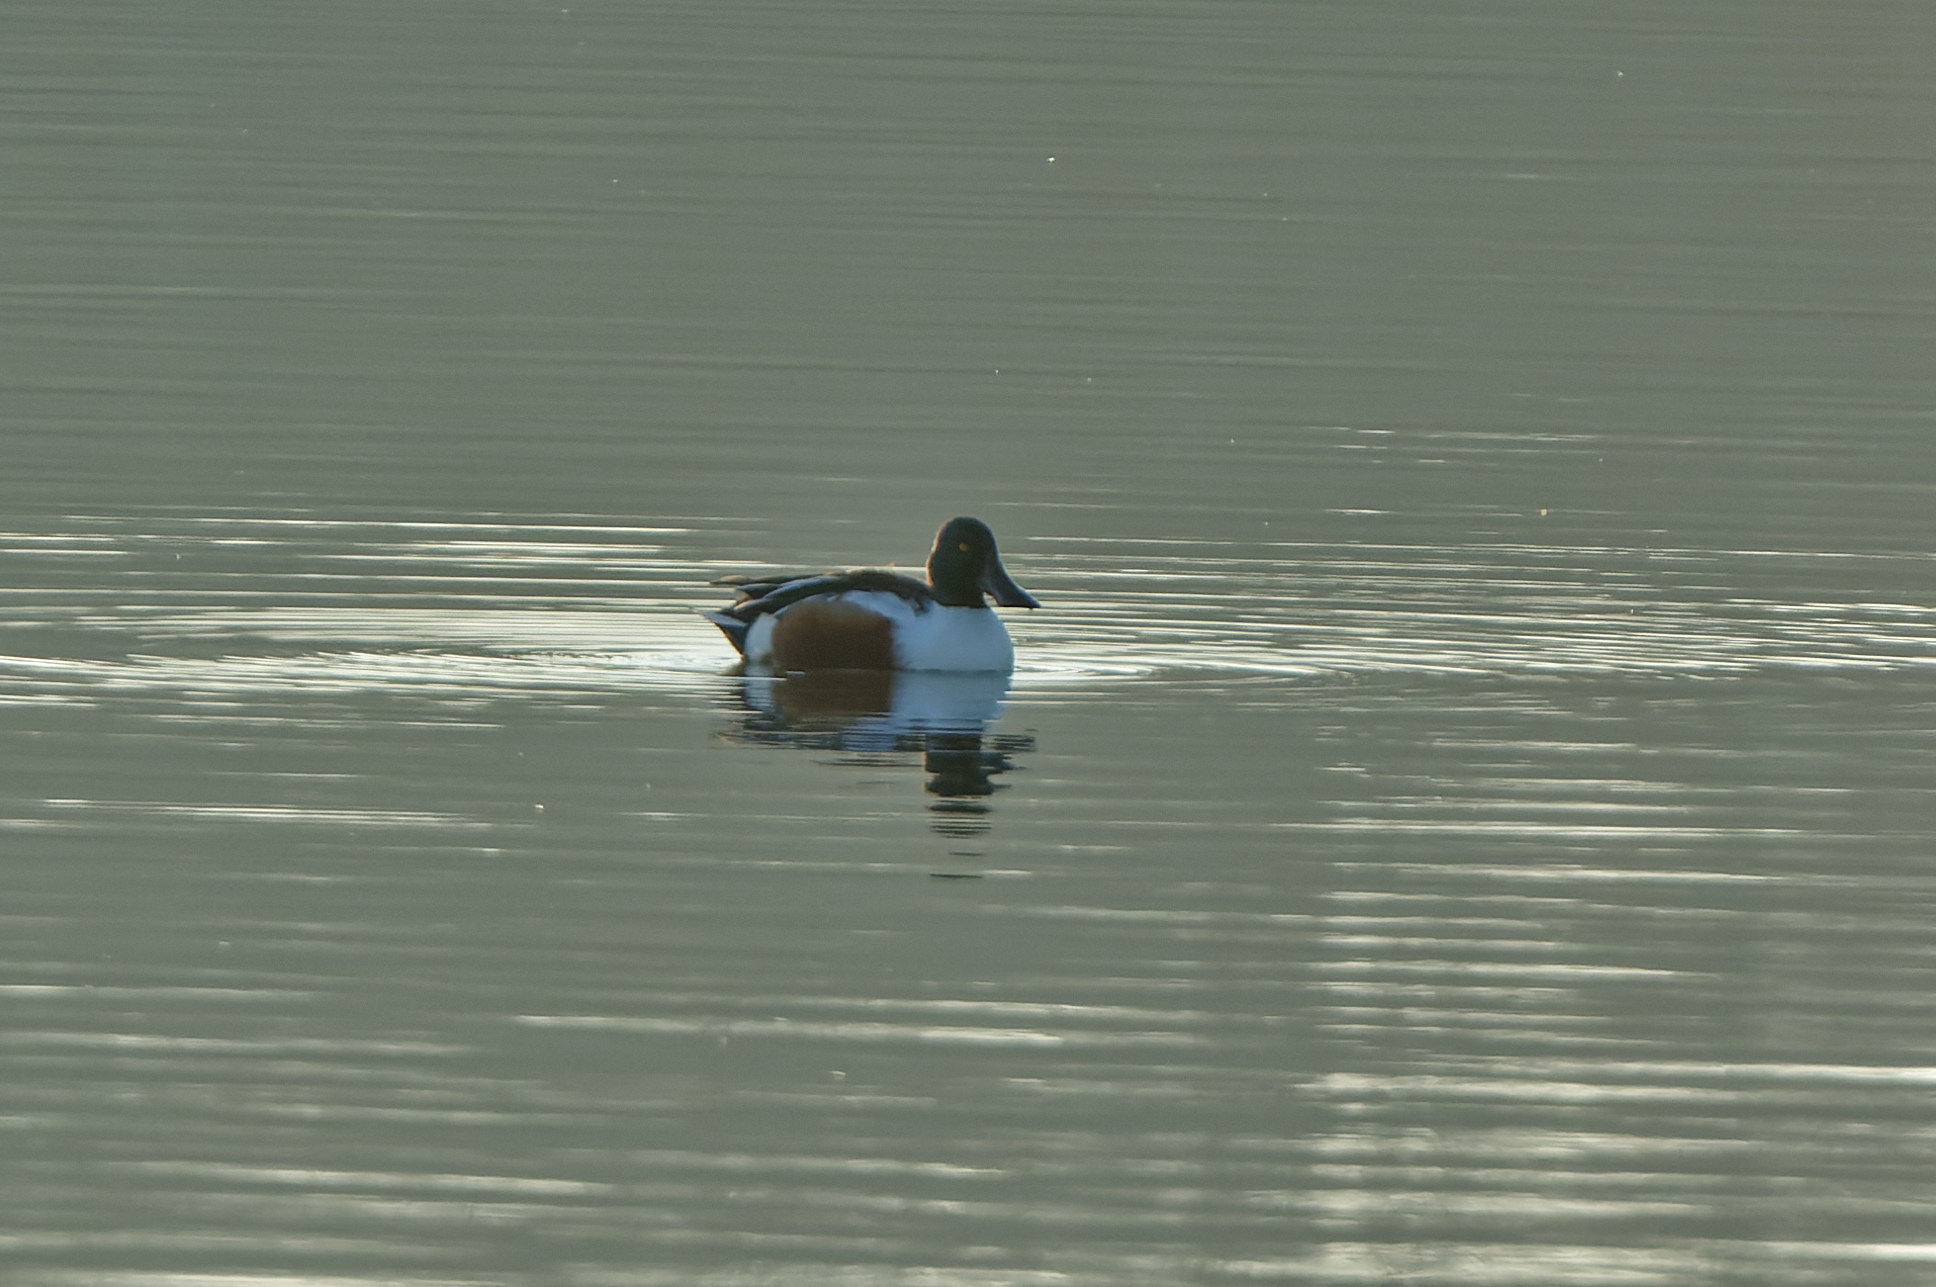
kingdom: Animalia
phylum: Chordata
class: Aves
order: Anseriformes
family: Anatidae
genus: Spatula
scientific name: Spatula clypeata
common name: Northern shoveler
